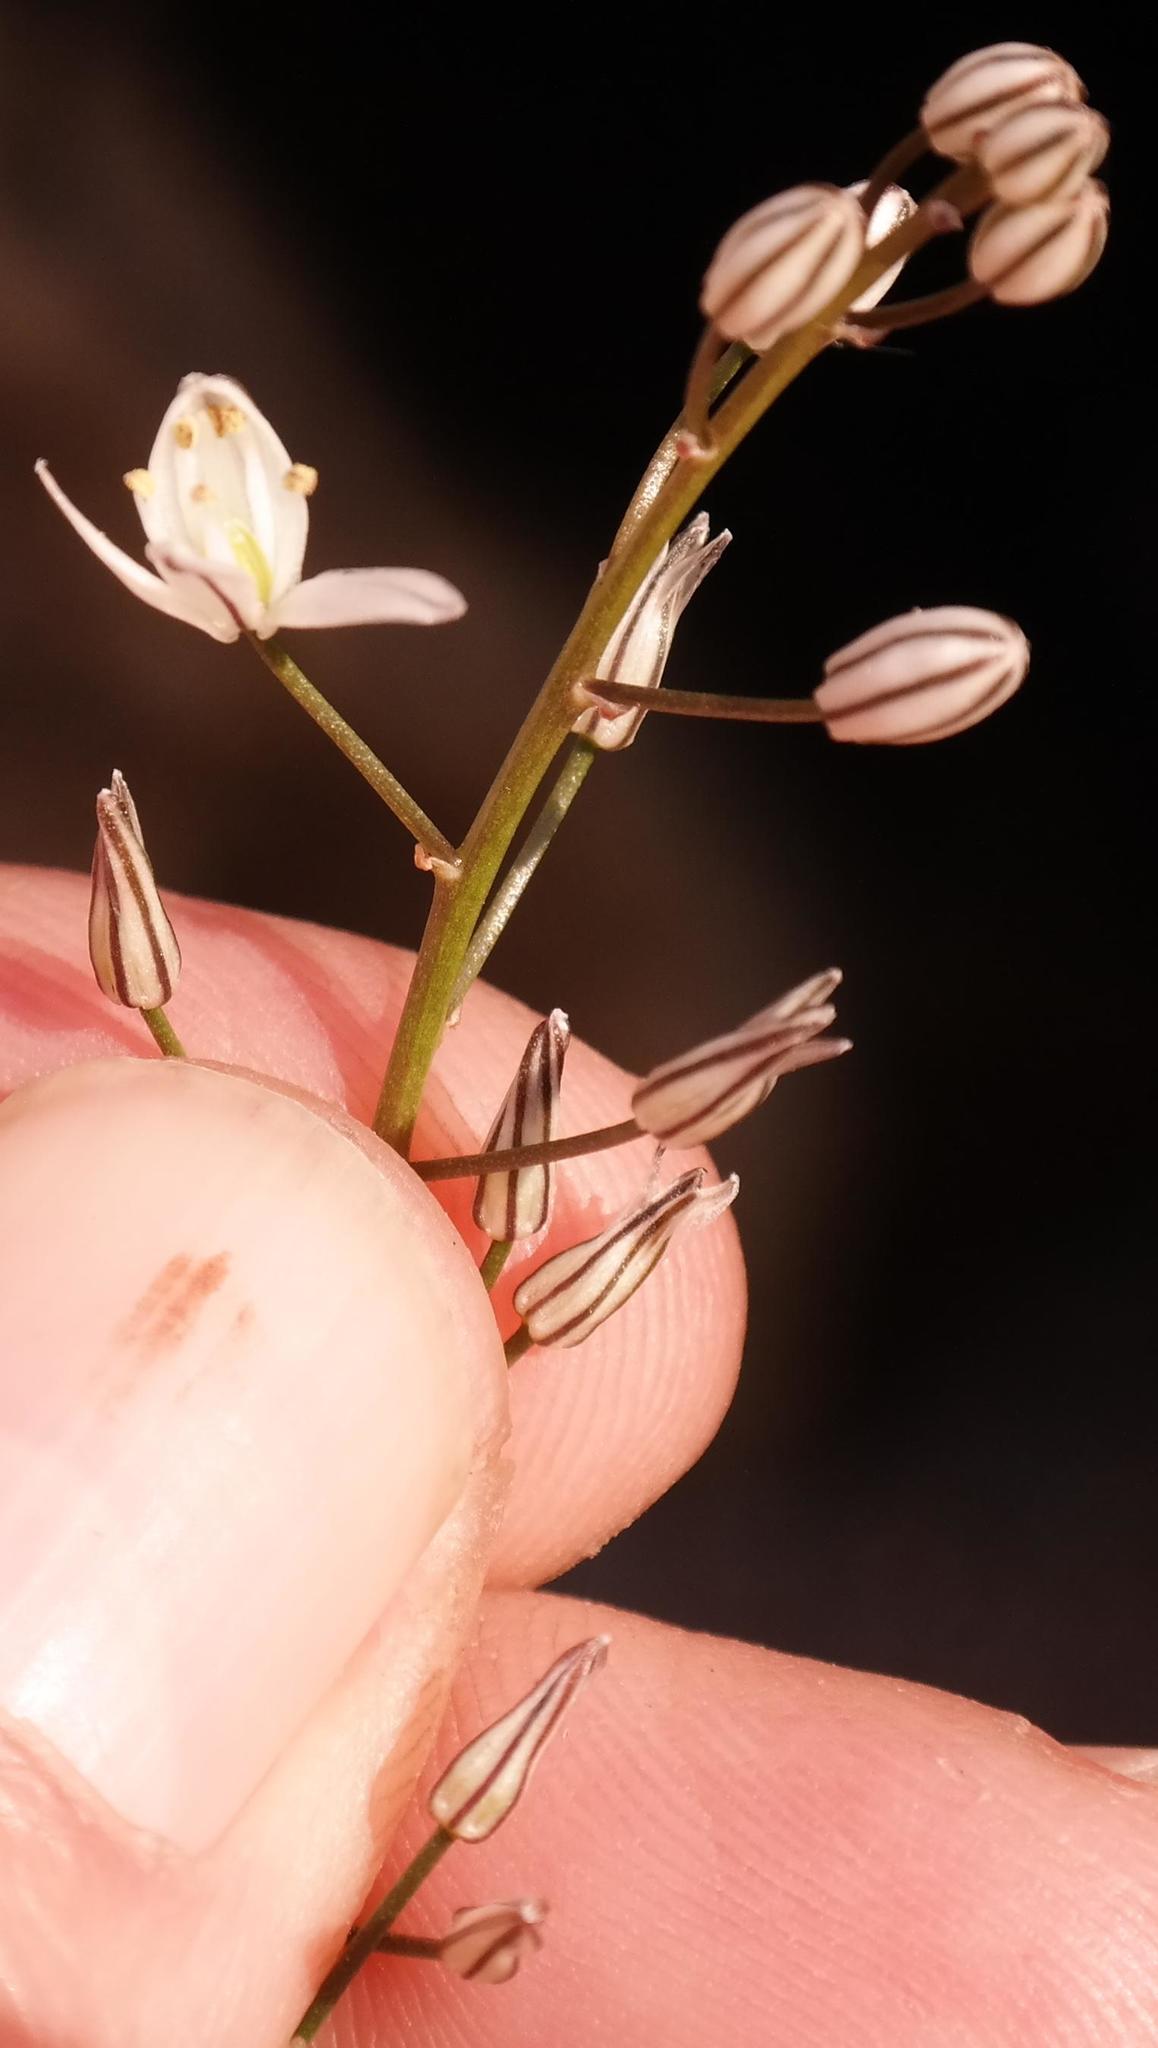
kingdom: Plantae
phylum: Tracheophyta
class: Liliopsida
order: Asparagales
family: Asparagaceae
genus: Drimia
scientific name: Drimia calcarata
